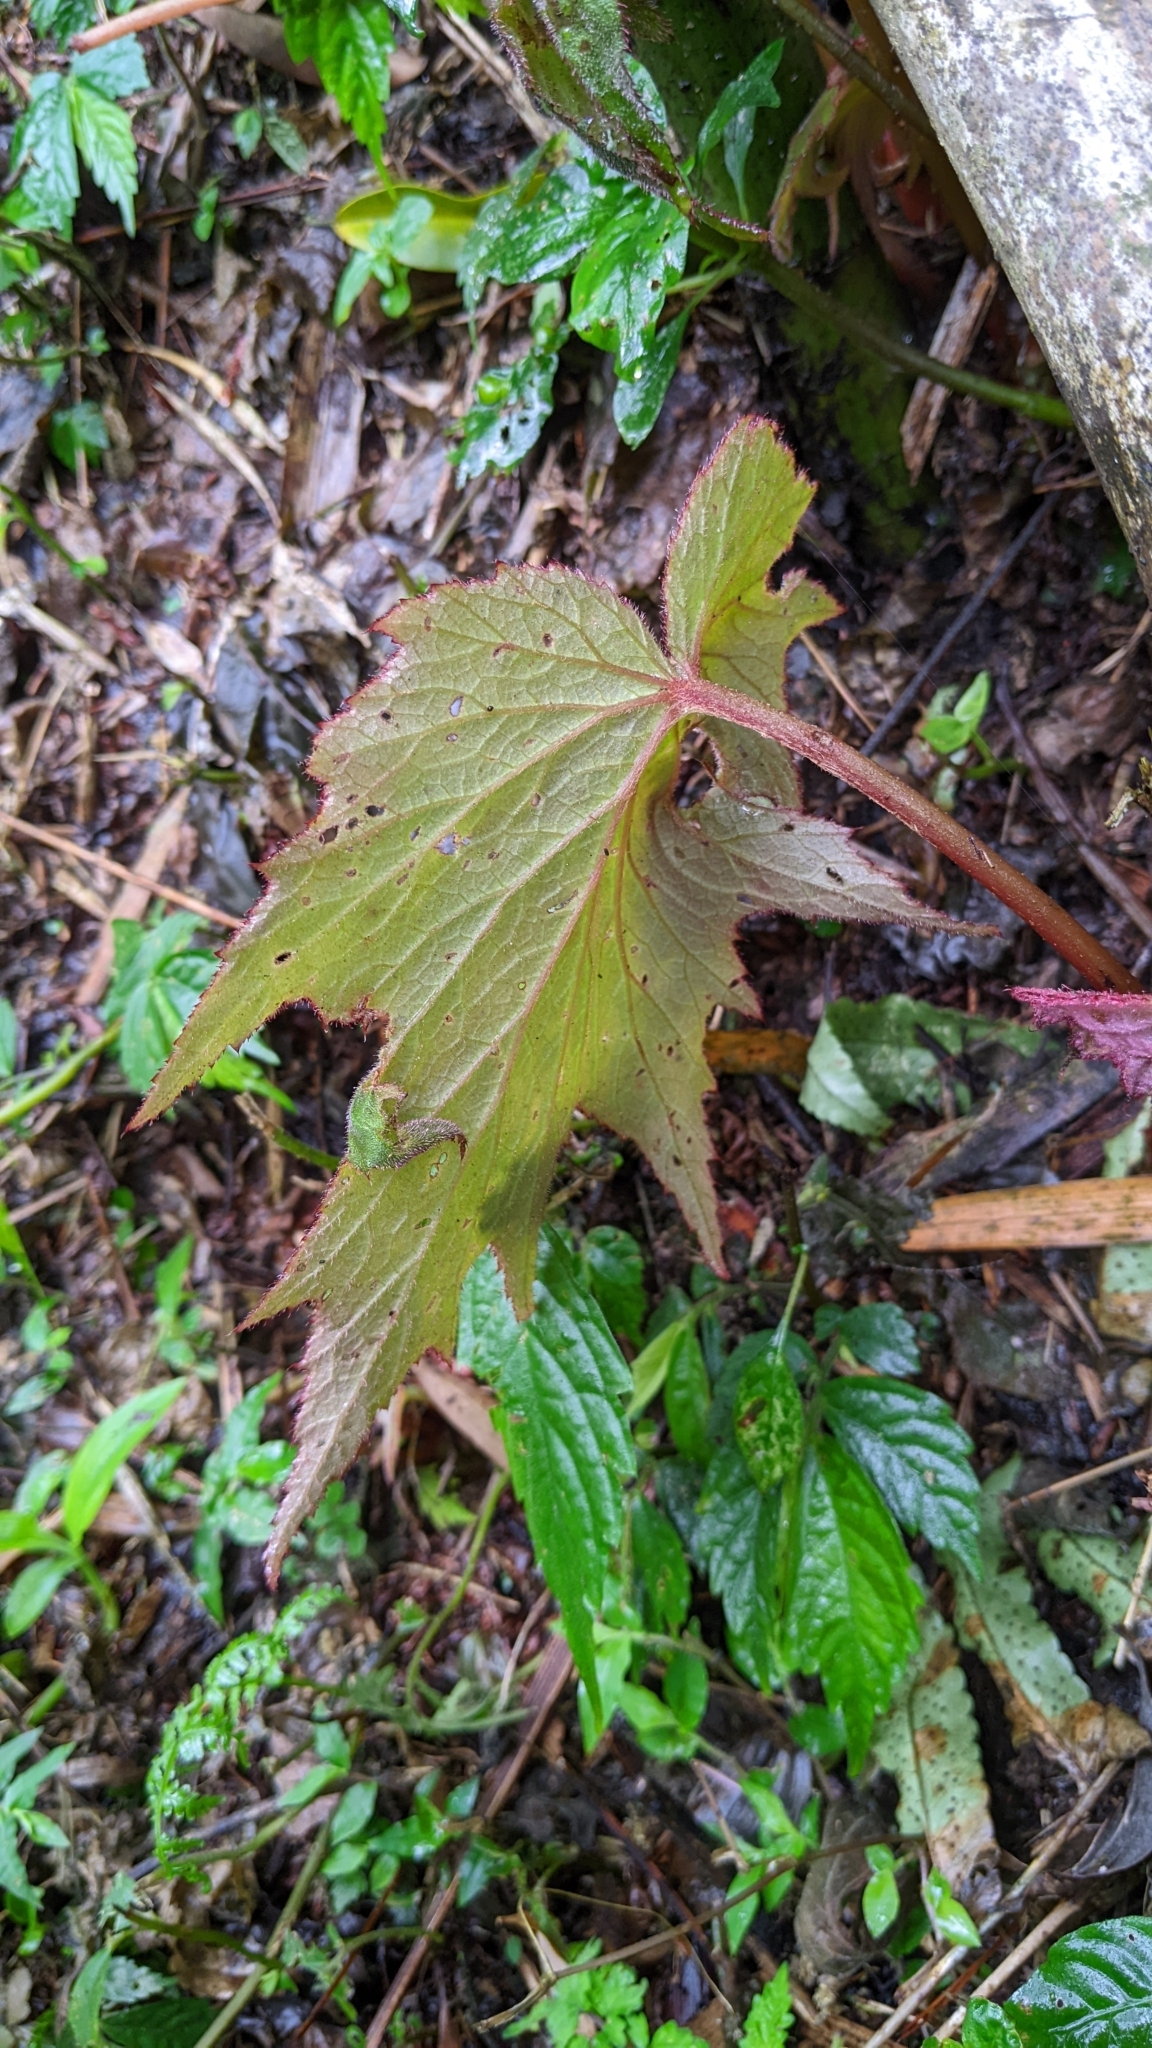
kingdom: Plantae
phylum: Tracheophyta
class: Magnoliopsida
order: Cucurbitales
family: Begoniaceae
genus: Begonia
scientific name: Begonia palmata
